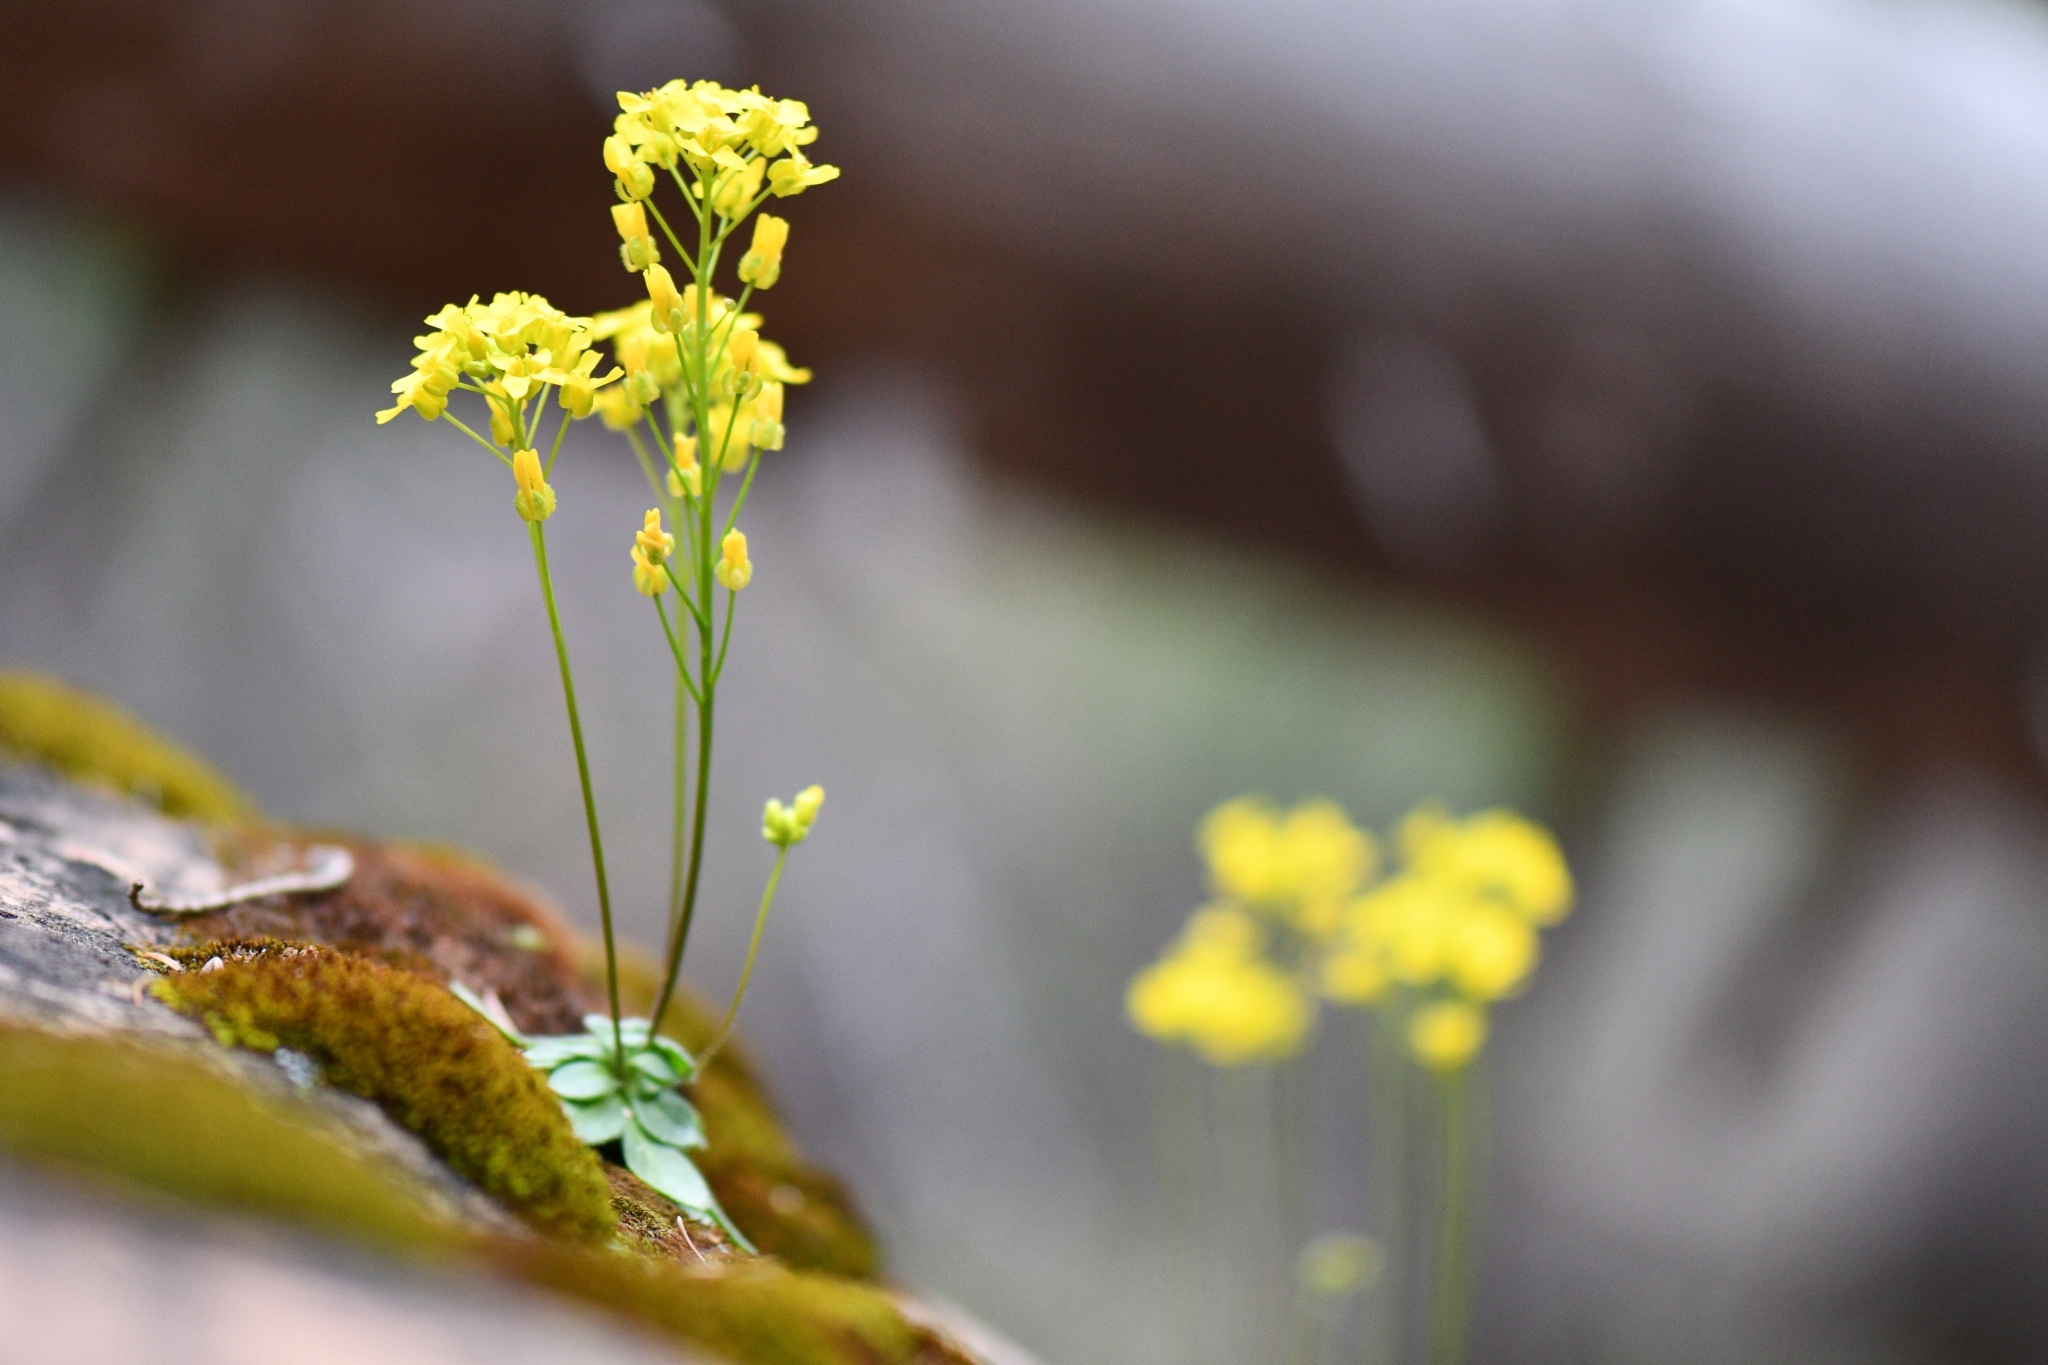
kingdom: Plantae
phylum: Tracheophyta
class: Magnoliopsida
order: Brassicales
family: Brassicaceae
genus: Draba
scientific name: Draba zionensis
